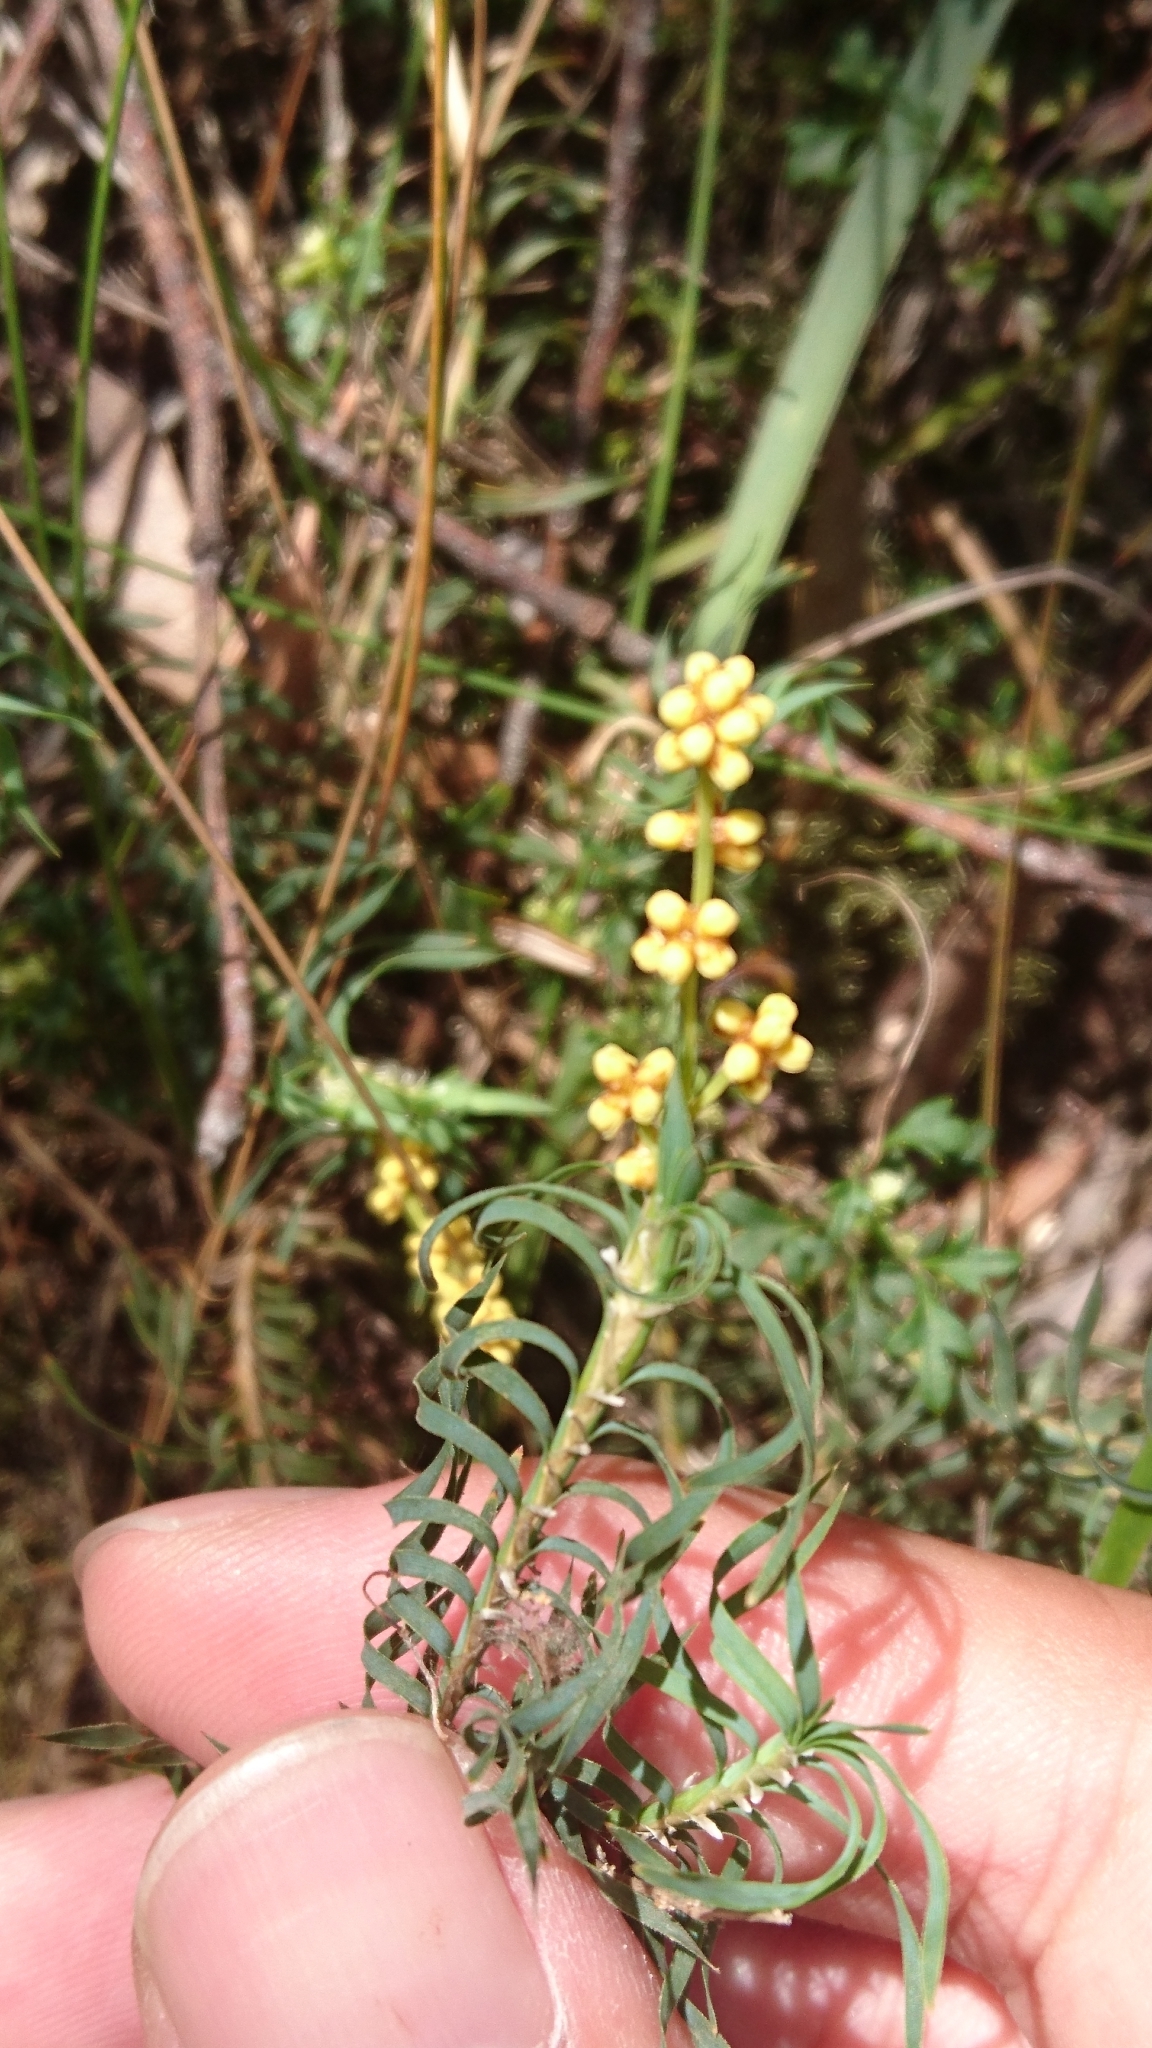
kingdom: Plantae
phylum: Tracheophyta
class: Liliopsida
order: Asparagales
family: Asparagaceae
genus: Lomandra
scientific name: Lomandra obliqua
